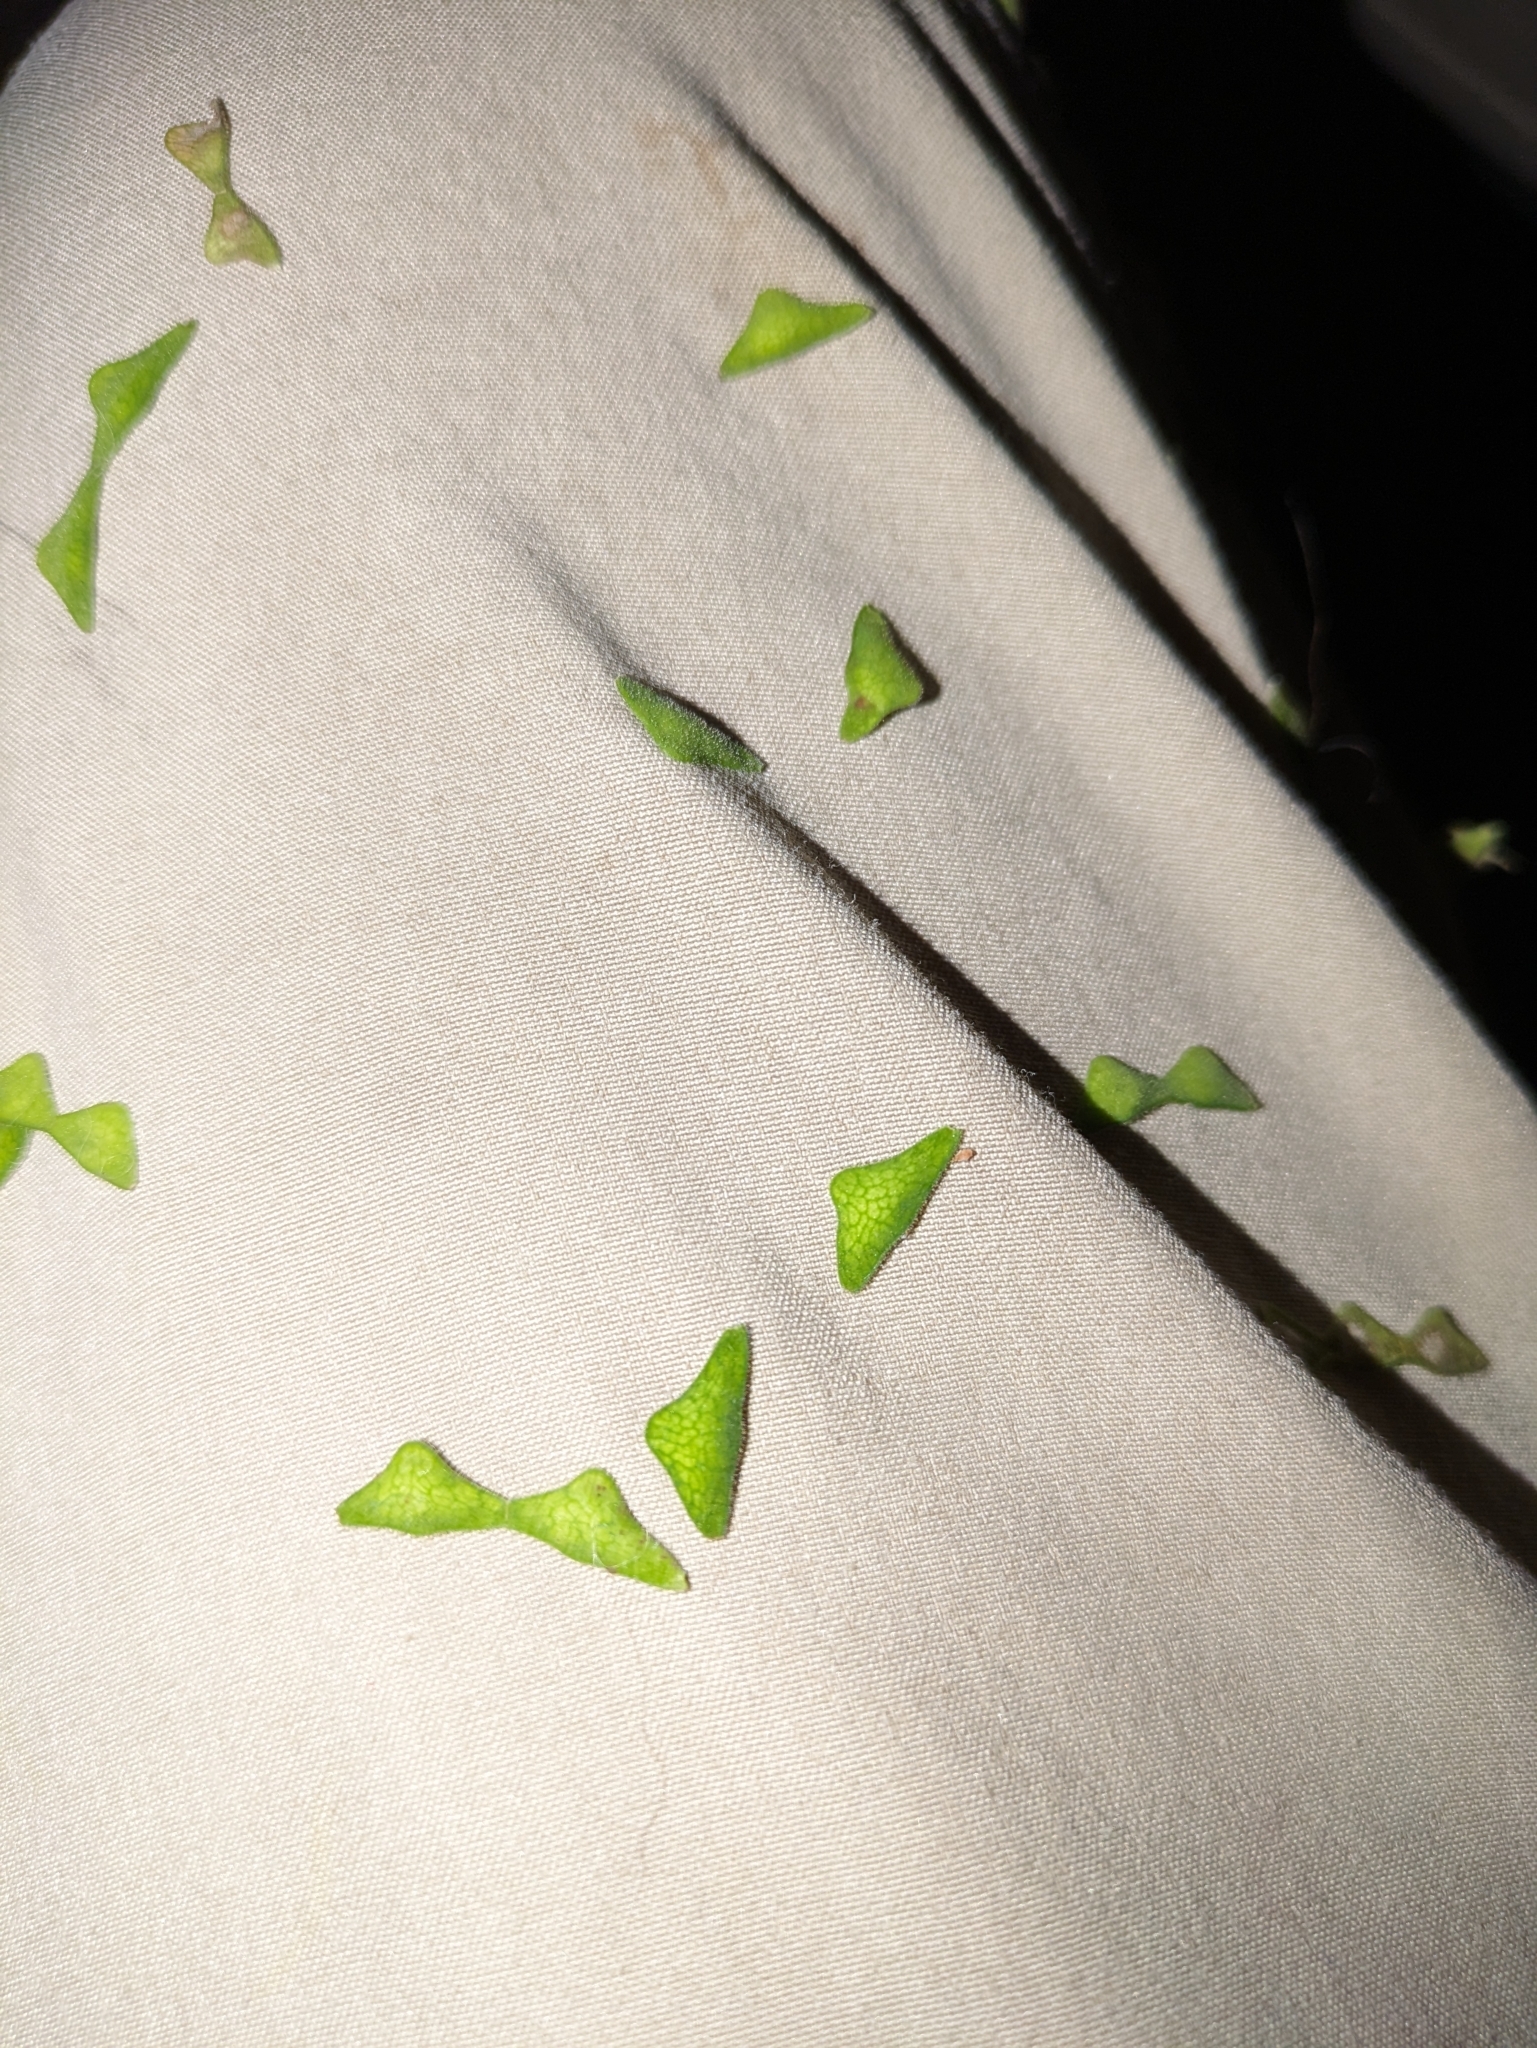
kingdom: Plantae
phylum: Tracheophyta
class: Magnoliopsida
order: Fabales
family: Fabaceae
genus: Desmodium
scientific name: Desmodium
